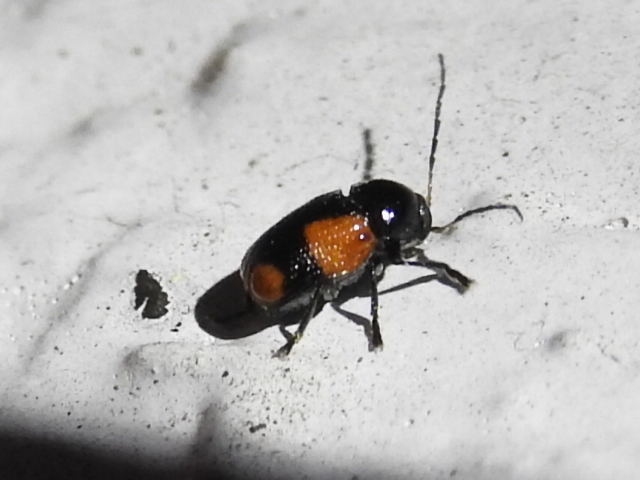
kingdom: Animalia
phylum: Arthropoda
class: Insecta
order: Coleoptera
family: Chrysomelidae
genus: Cryptocephalus
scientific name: Cryptocephalus quadruplex
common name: Black and red sumac leaf beetle
